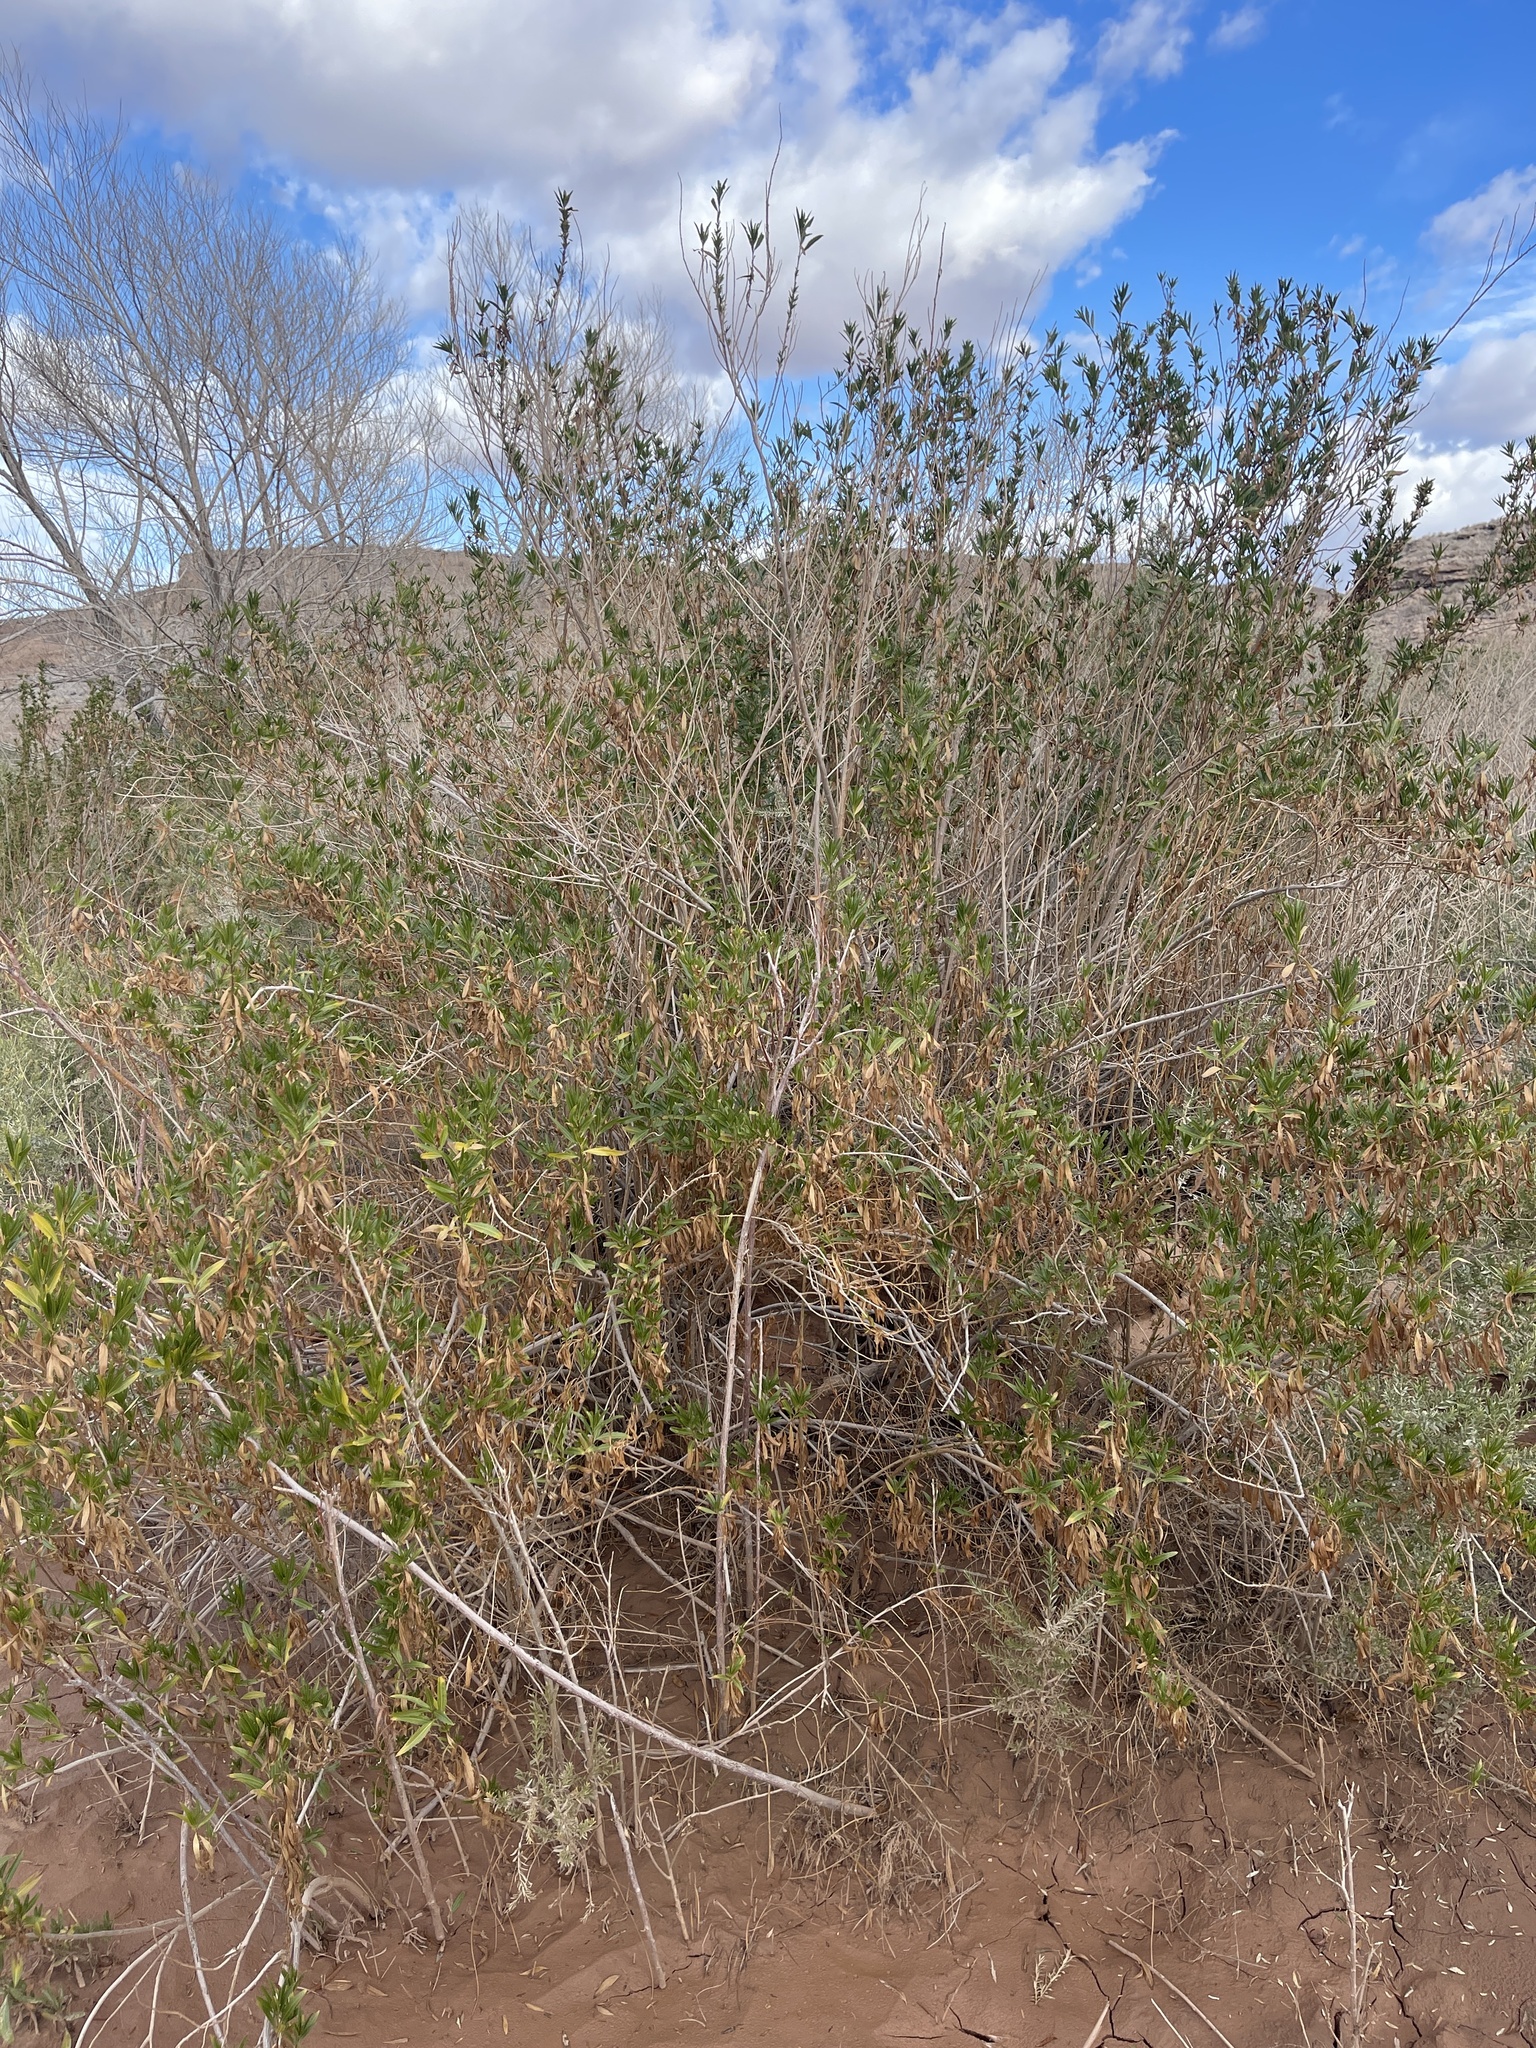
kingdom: Plantae
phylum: Tracheophyta
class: Magnoliopsida
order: Asterales
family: Asteraceae
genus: Baccharis
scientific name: Baccharis salicifolia
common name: Sticky baccharis
